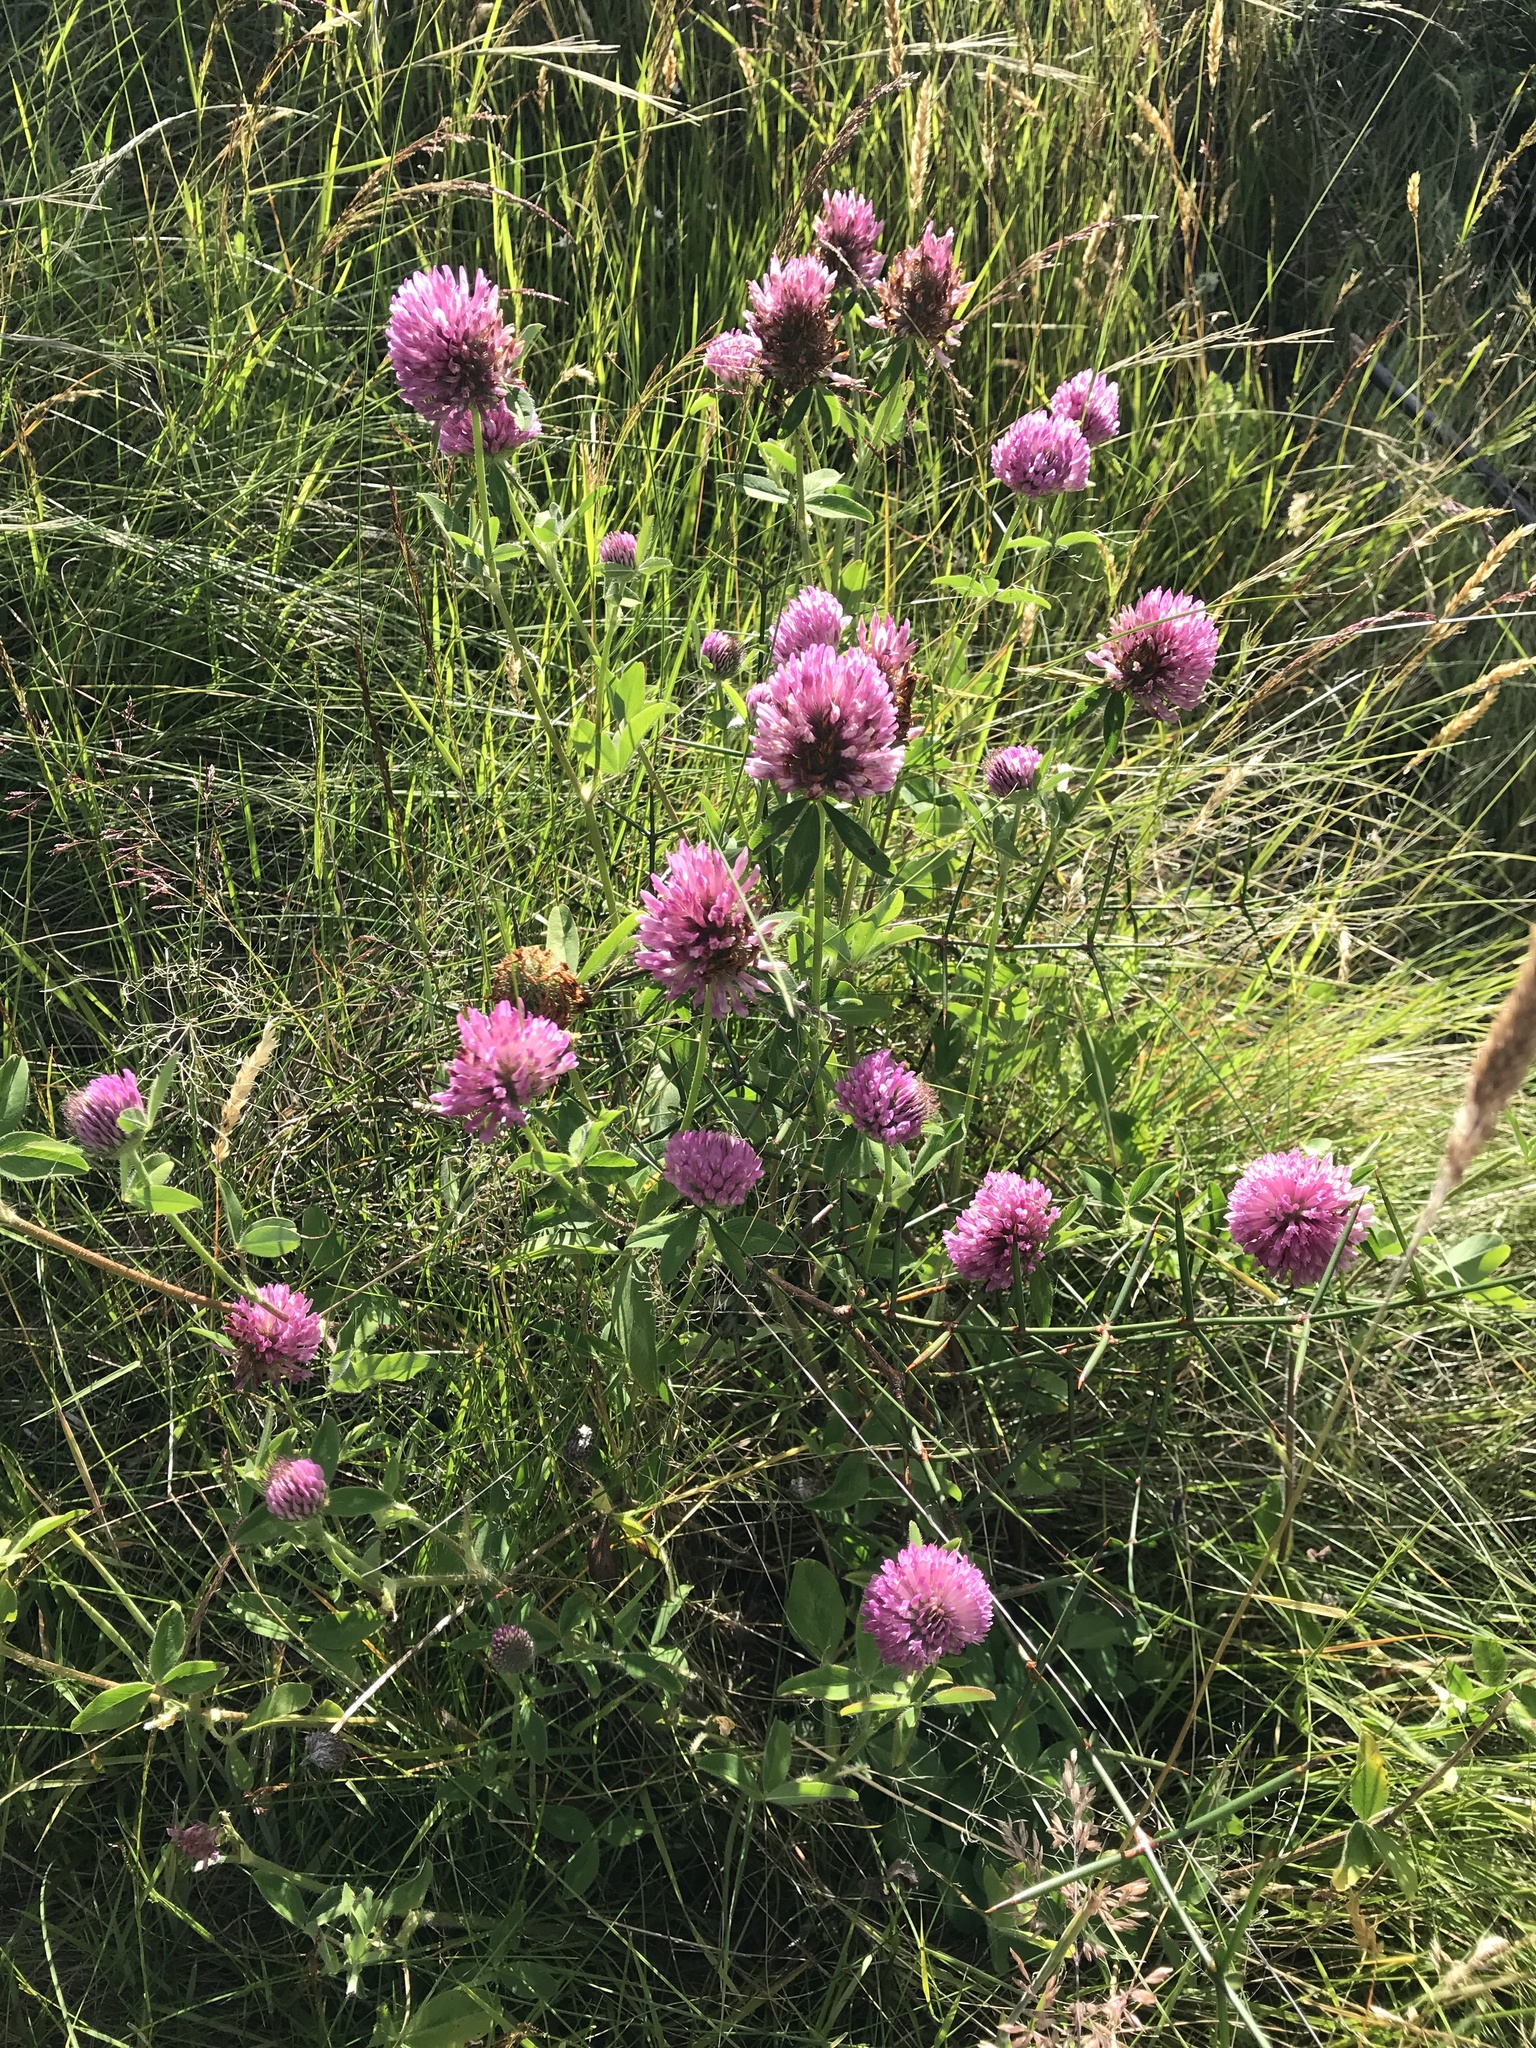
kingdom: Plantae
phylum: Tracheophyta
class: Magnoliopsida
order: Fabales
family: Fabaceae
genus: Trifolium
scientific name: Trifolium pratense
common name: Red clover
